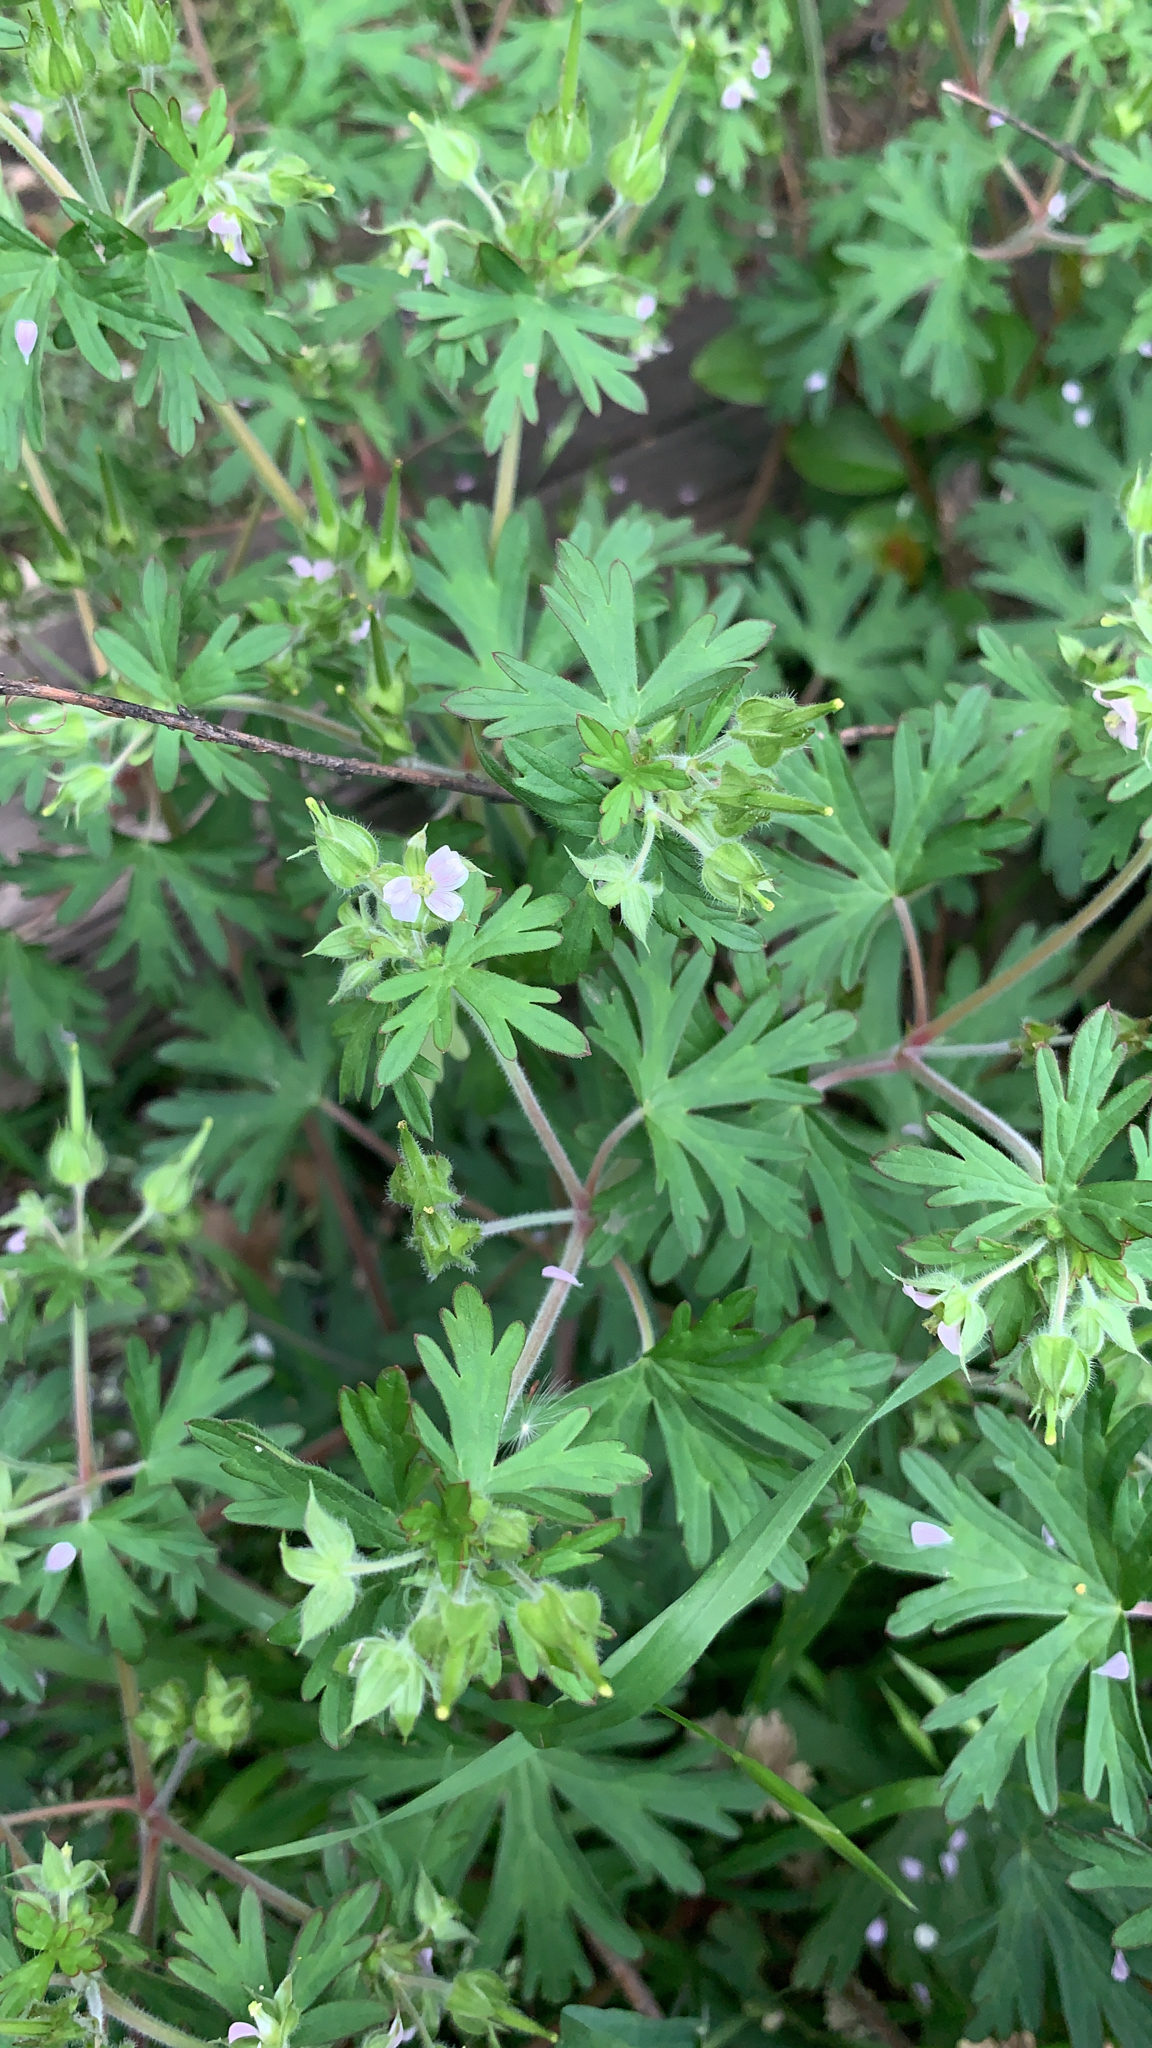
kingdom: Plantae
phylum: Tracheophyta
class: Magnoliopsida
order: Geraniales
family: Geraniaceae
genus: Geranium
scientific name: Geranium carolinianum
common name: Carolina crane's-bill
